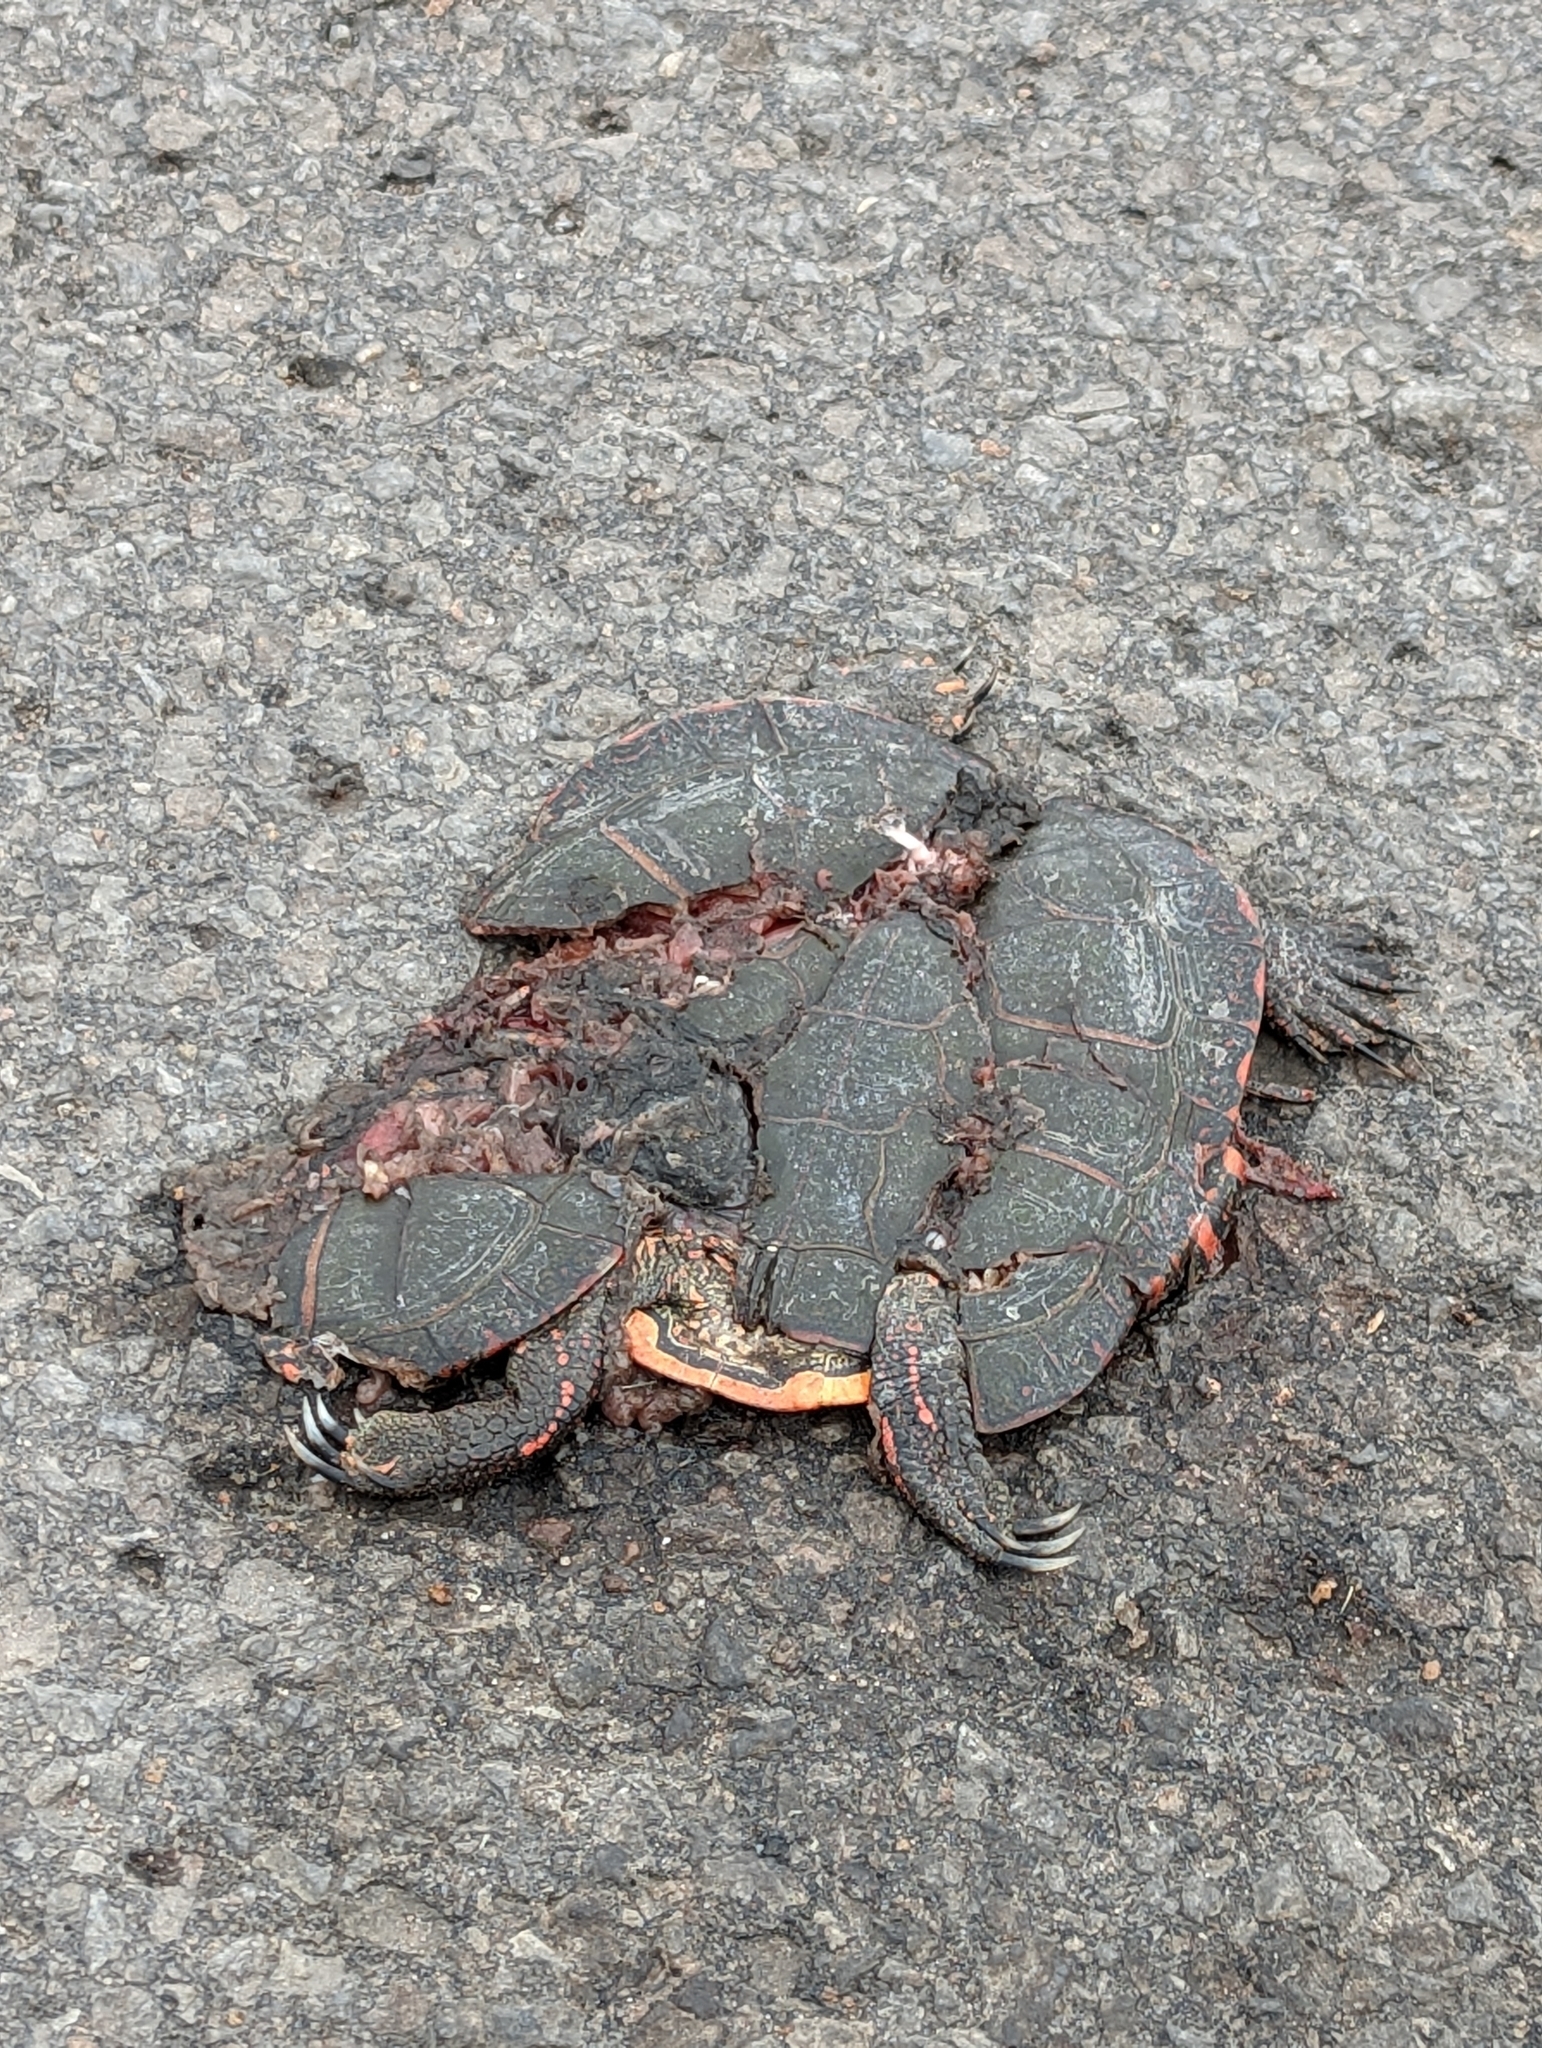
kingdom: Animalia
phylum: Chordata
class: Testudines
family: Emydidae
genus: Chrysemys
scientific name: Chrysemys picta
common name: Painted turtle
